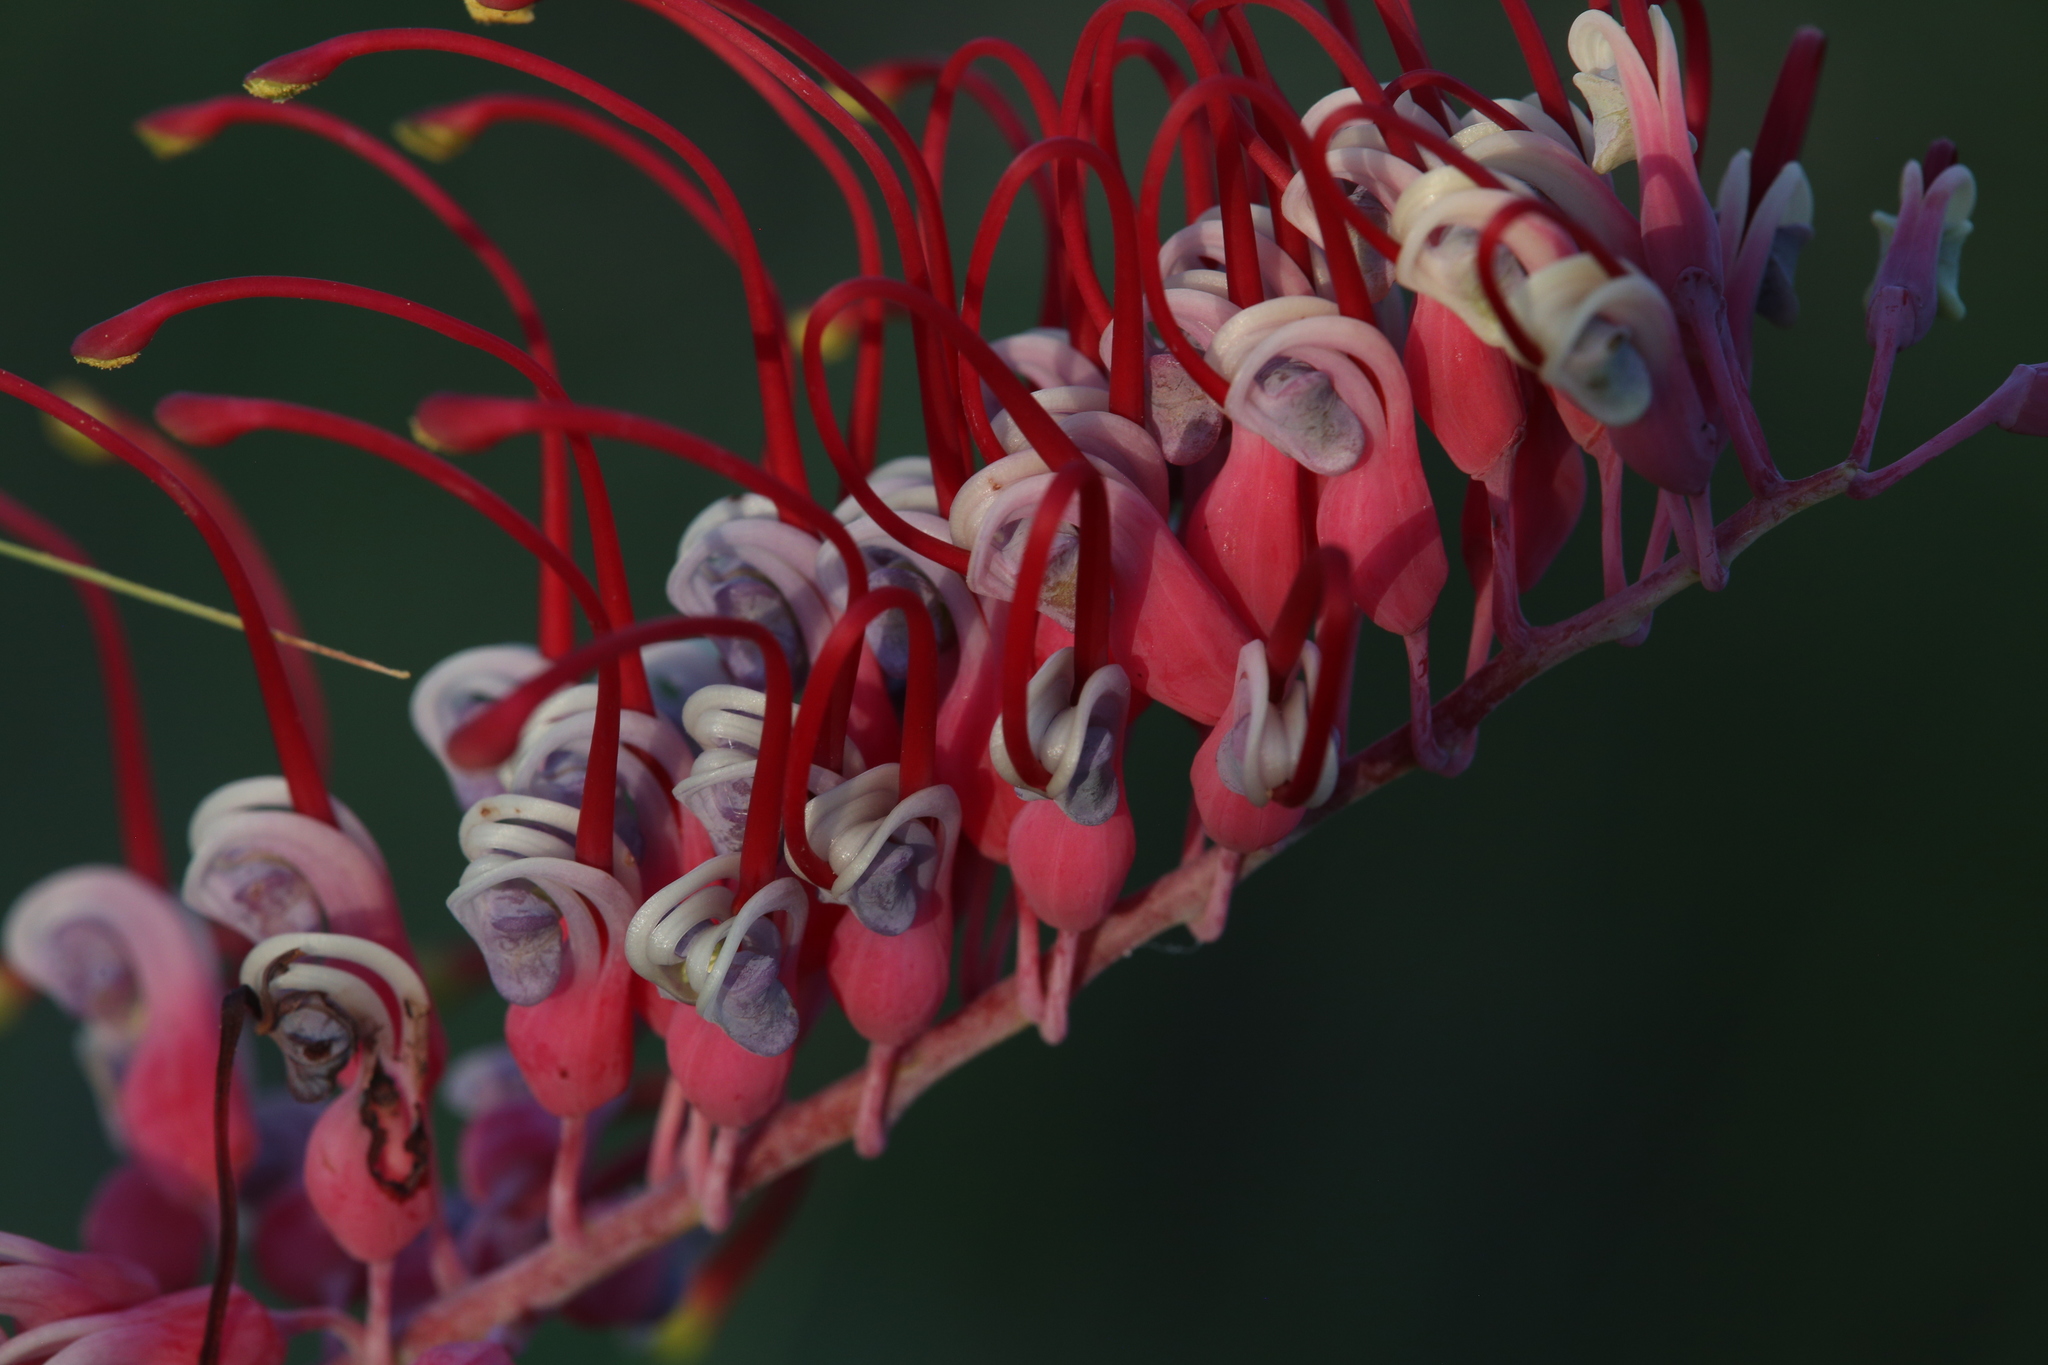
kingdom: Plantae
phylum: Tracheophyta
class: Magnoliopsida
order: Proteales
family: Proteaceae
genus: Grevillea
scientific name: Grevillea dryandri
